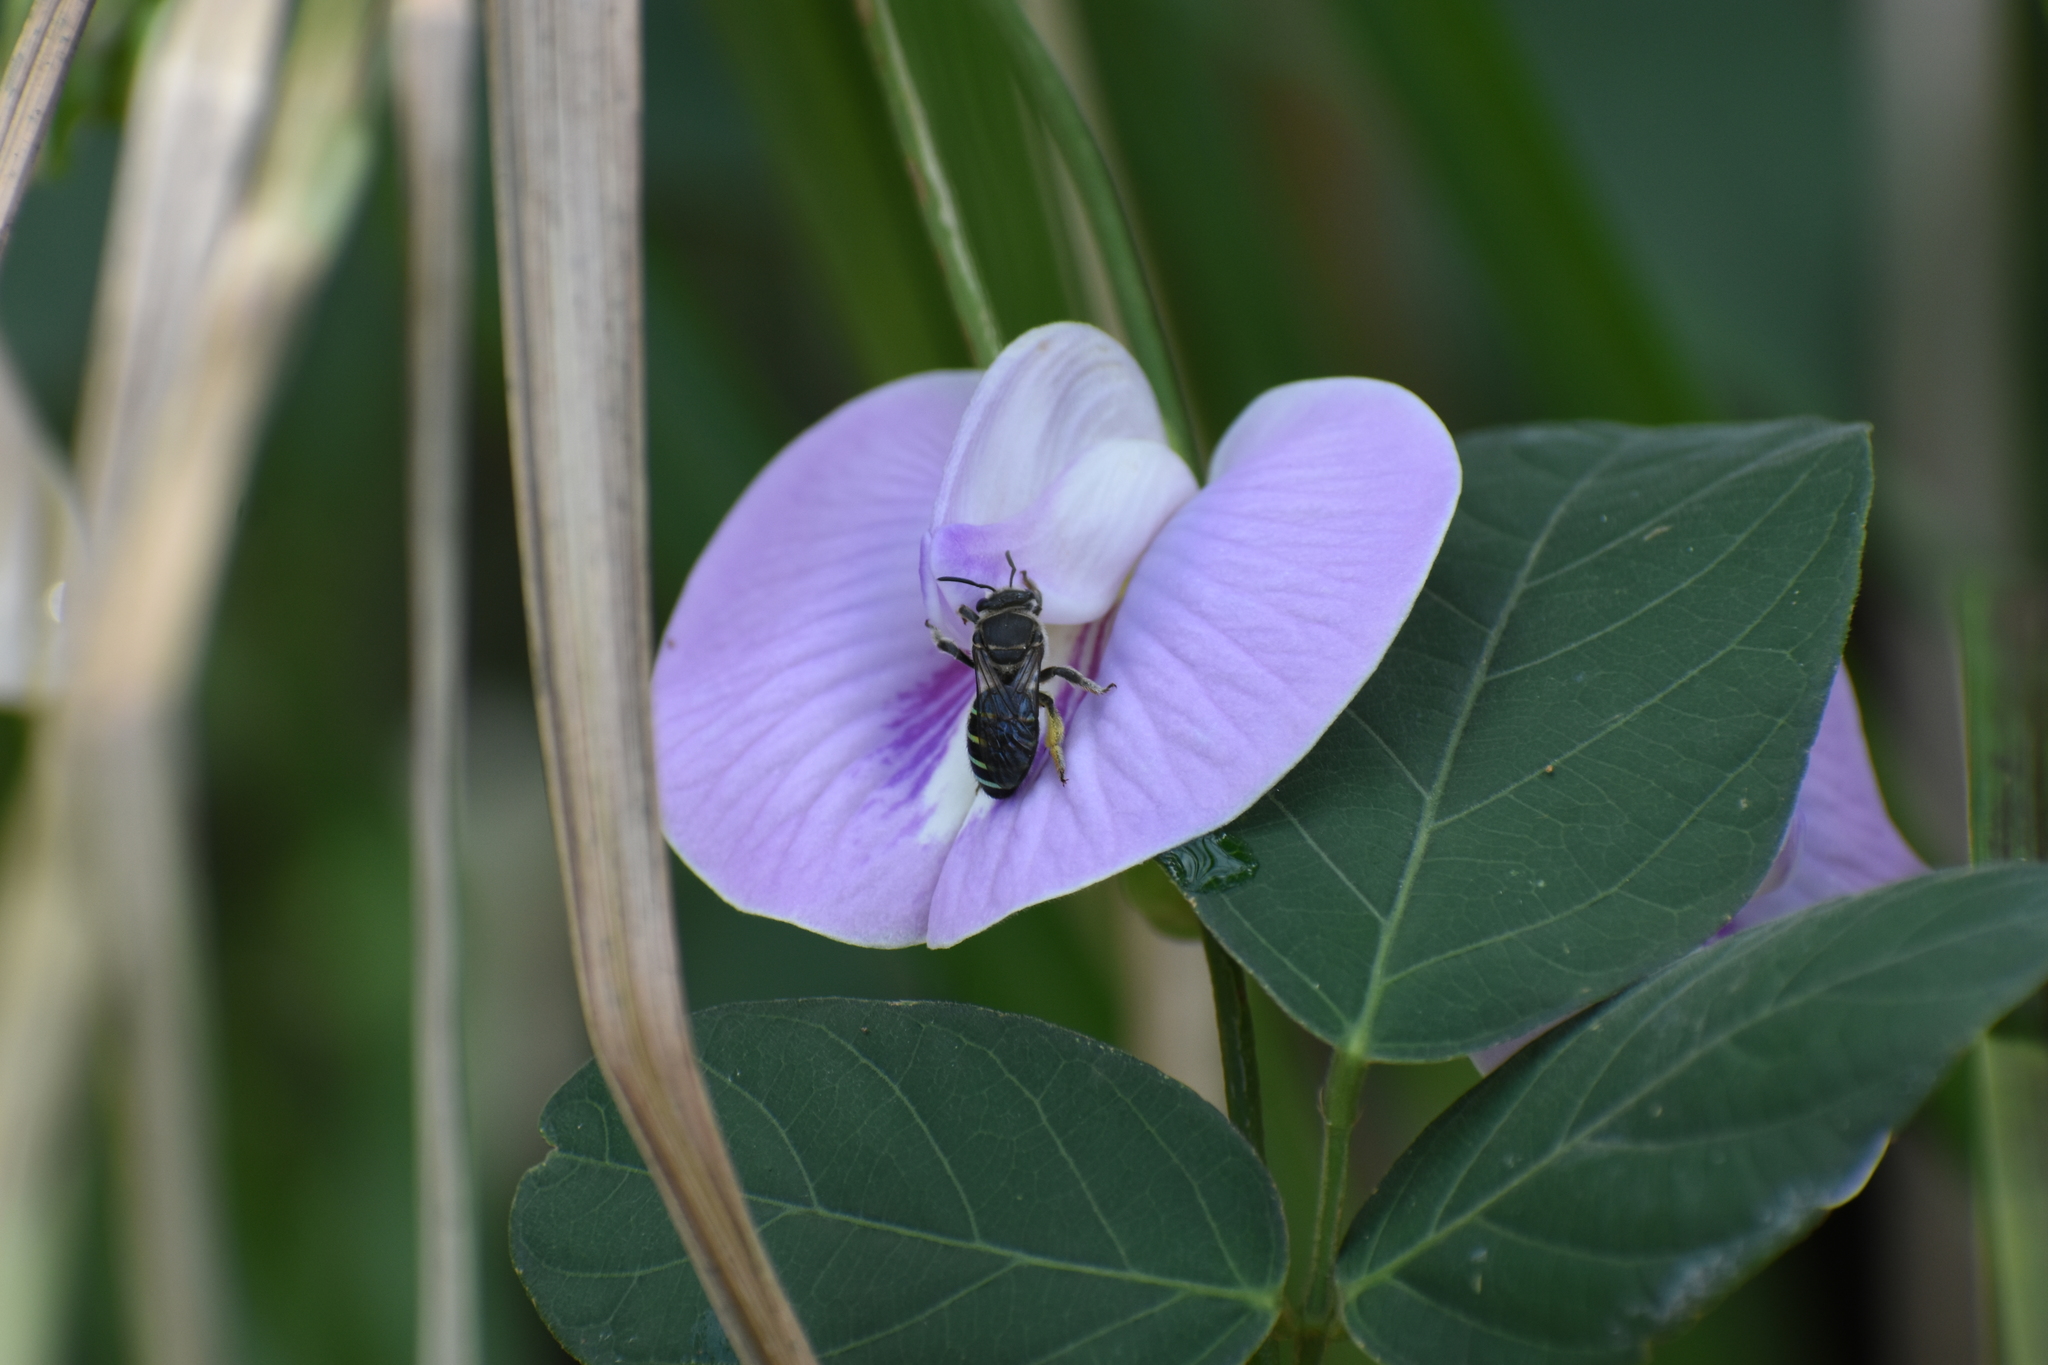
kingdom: Animalia
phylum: Arthropoda
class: Insecta
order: Hymenoptera
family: Halictidae
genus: Nomia
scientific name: Nomia ellioti
